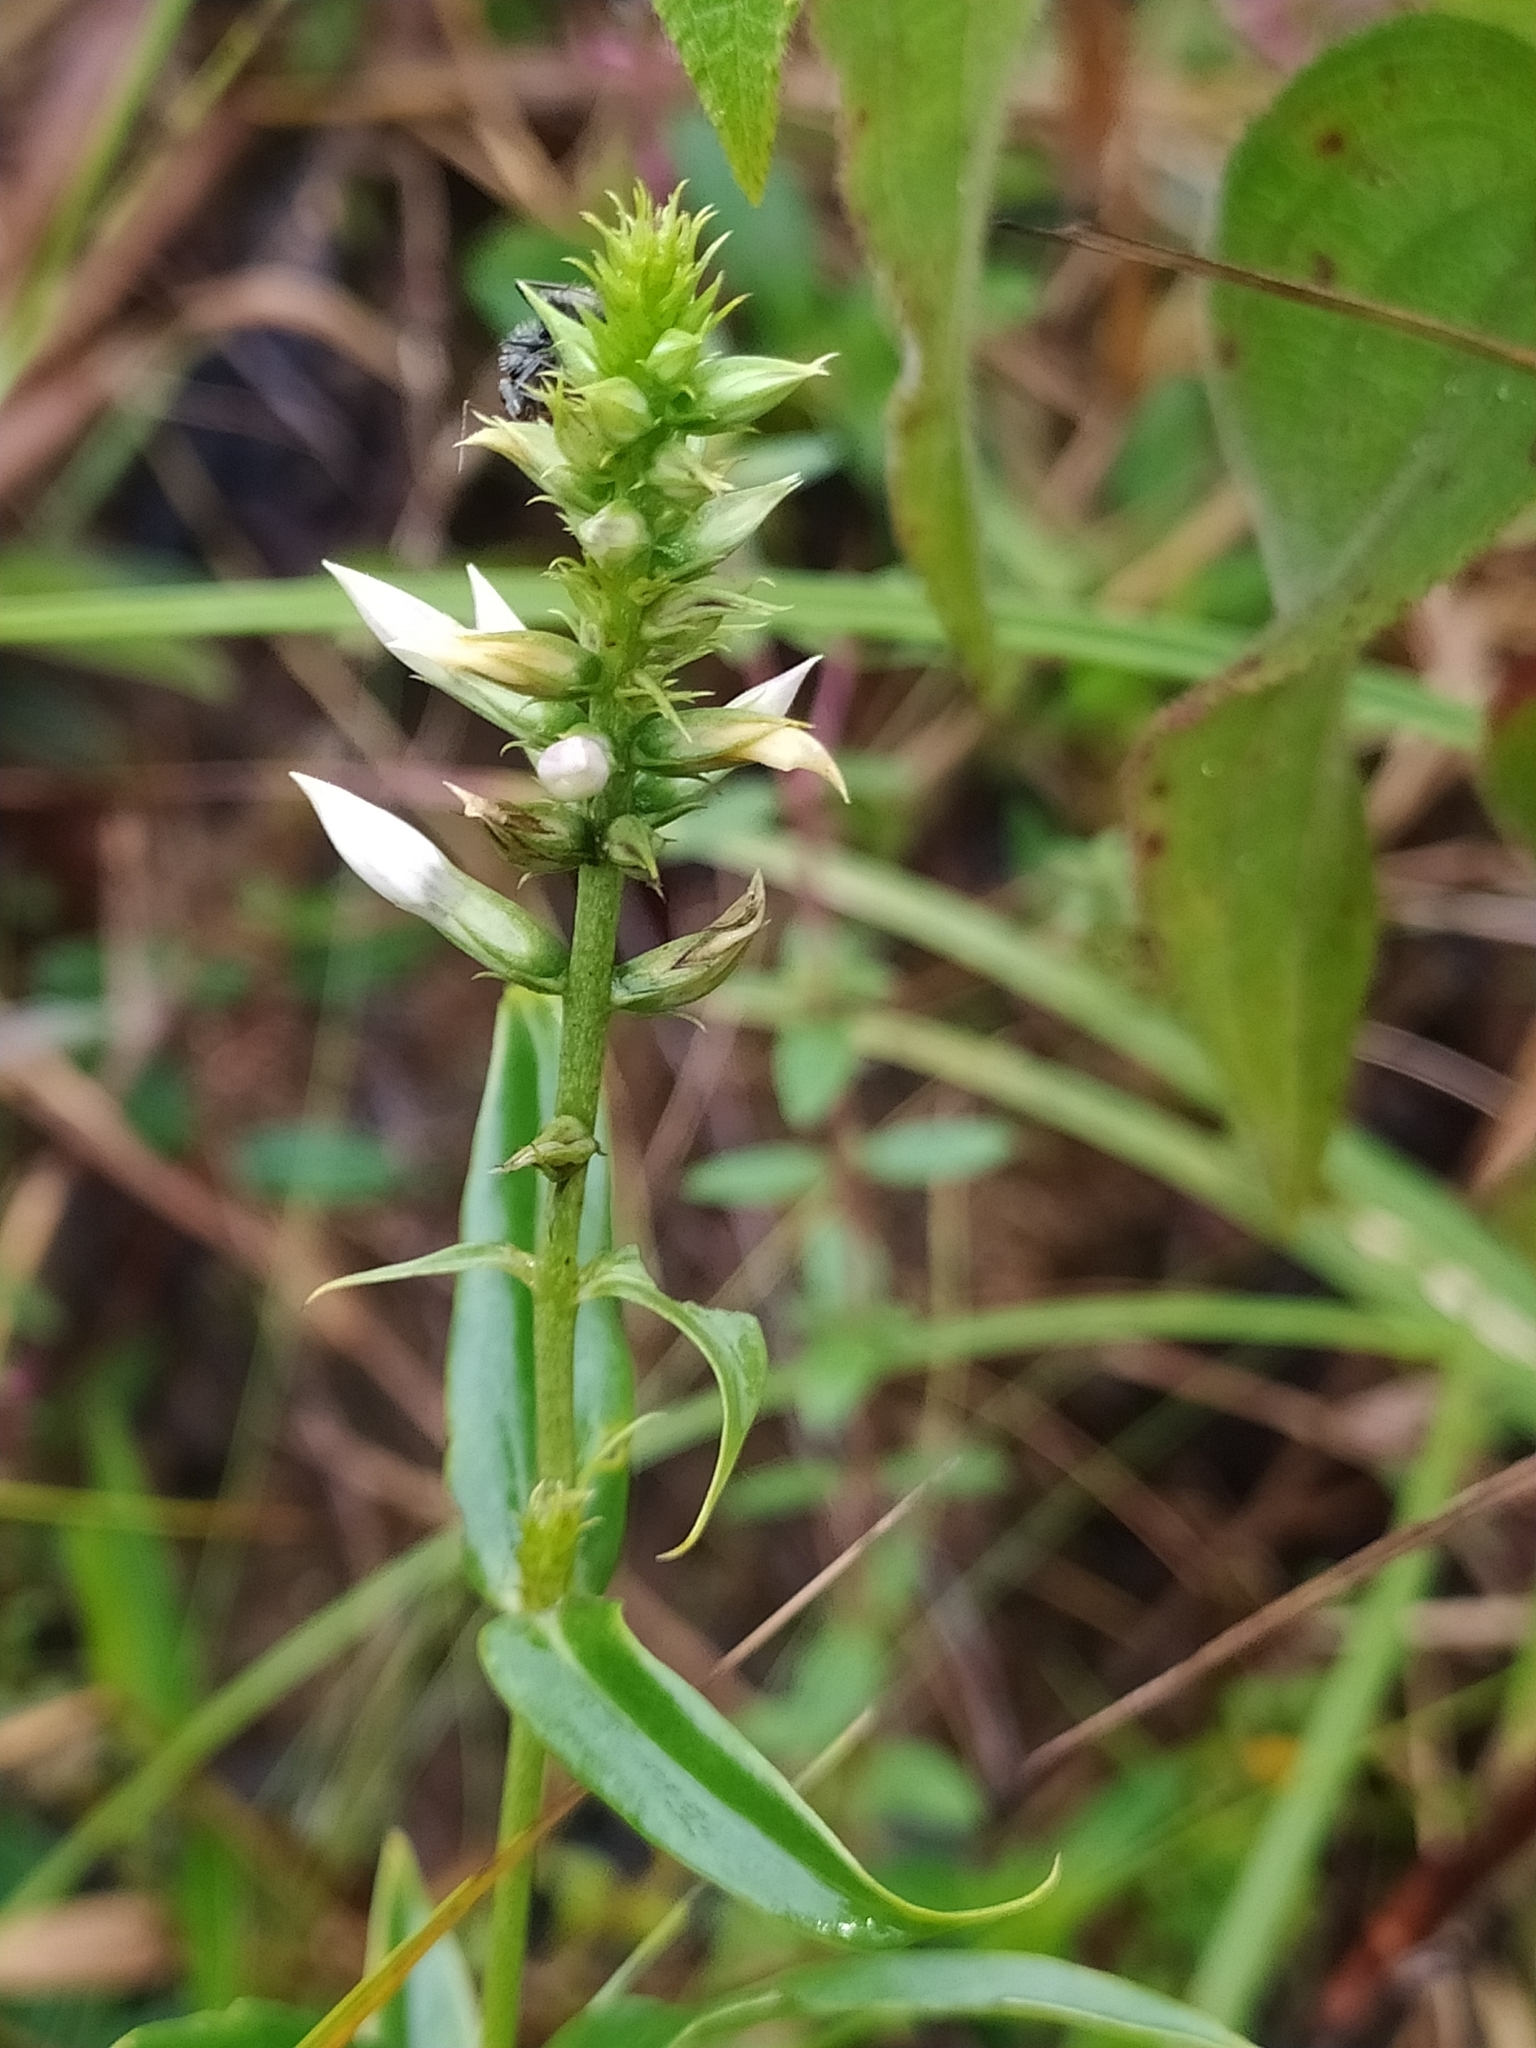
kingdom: Plantae
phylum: Tracheophyta
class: Magnoliopsida
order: Gentianales
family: Gentianaceae
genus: Coutoubea
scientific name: Coutoubea spicata
